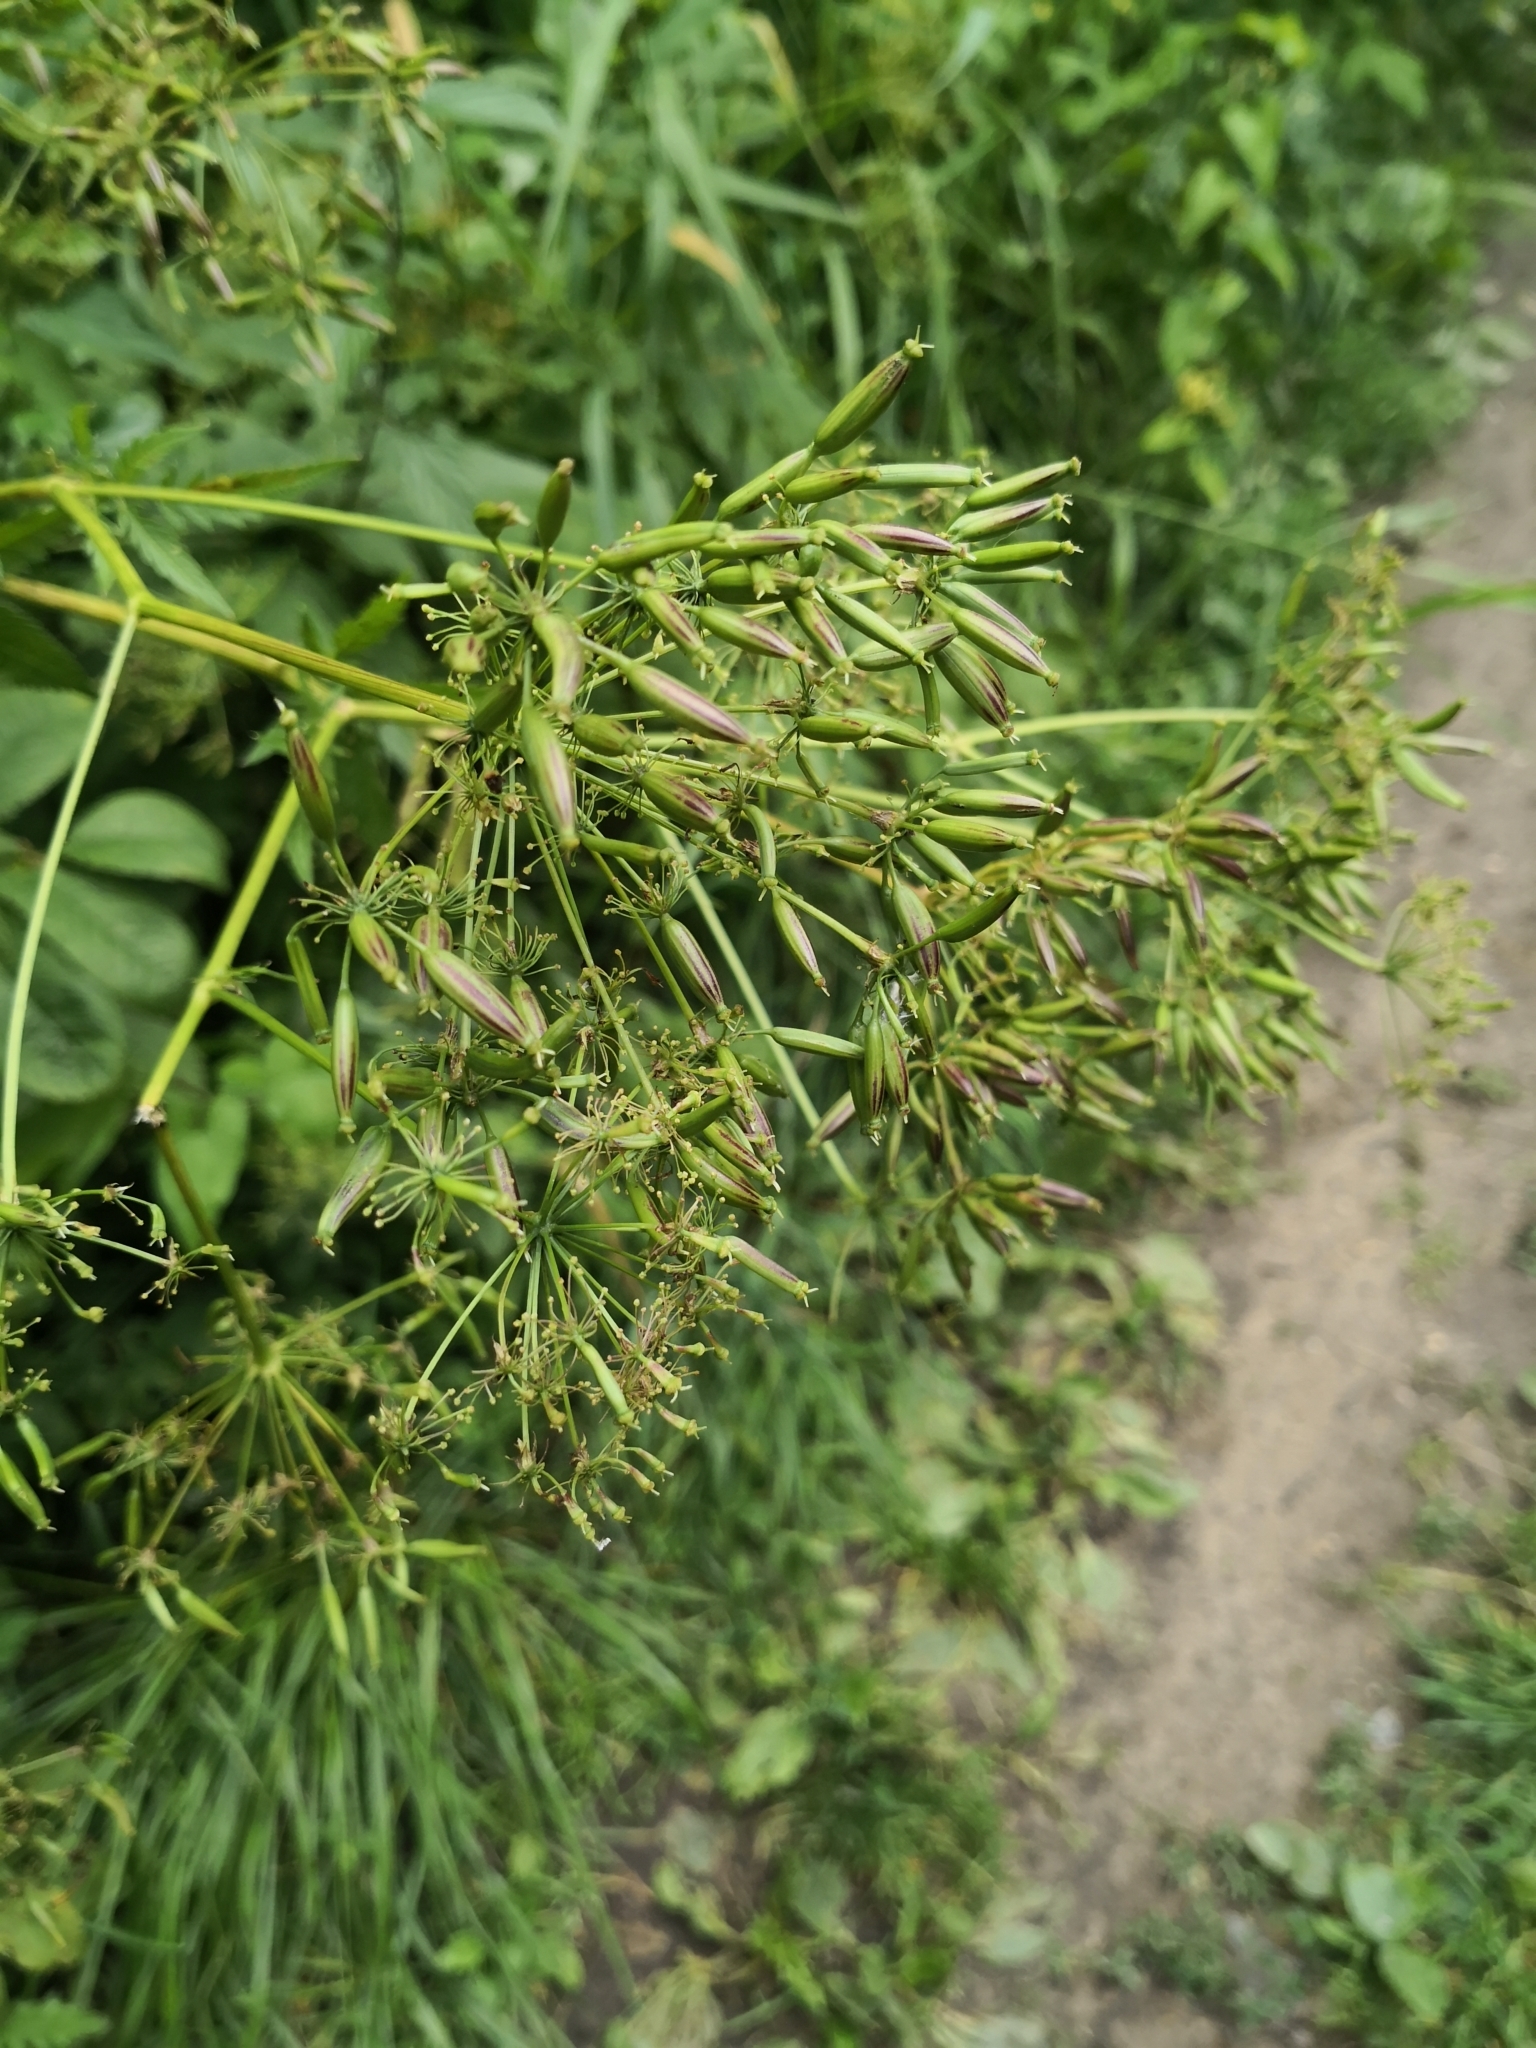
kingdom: Plantae
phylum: Tracheophyta
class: Magnoliopsida
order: Apiales
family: Apiaceae
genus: Chaerophyllum
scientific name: Chaerophyllum aromaticum
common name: Broadleaf chervil
